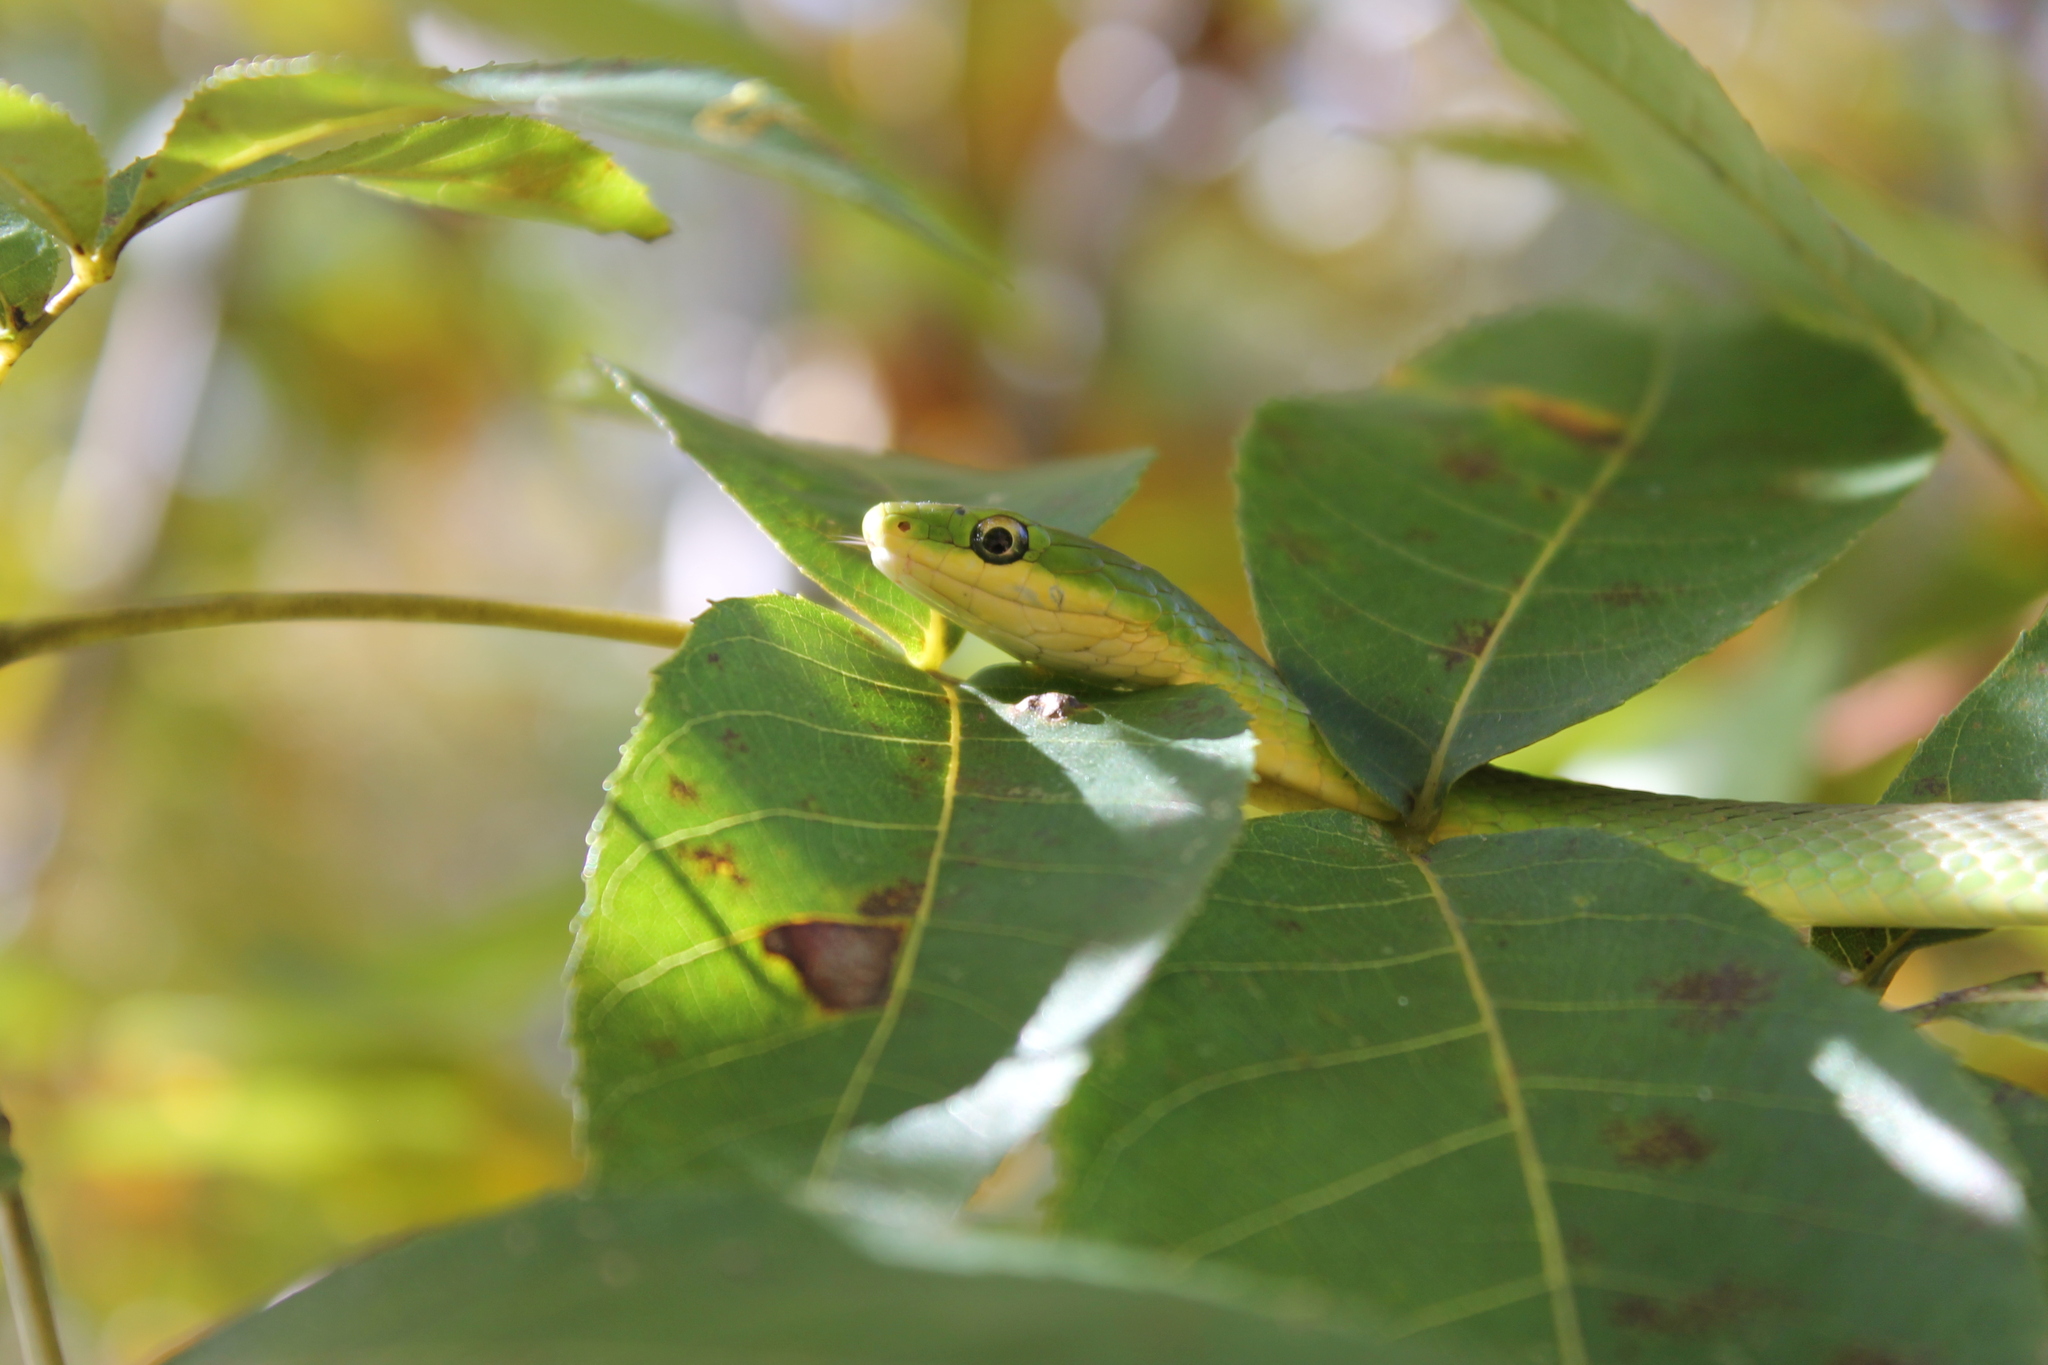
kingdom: Animalia
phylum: Chordata
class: Squamata
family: Colubridae
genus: Opheodrys
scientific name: Opheodrys aestivus
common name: Rough greensnake
